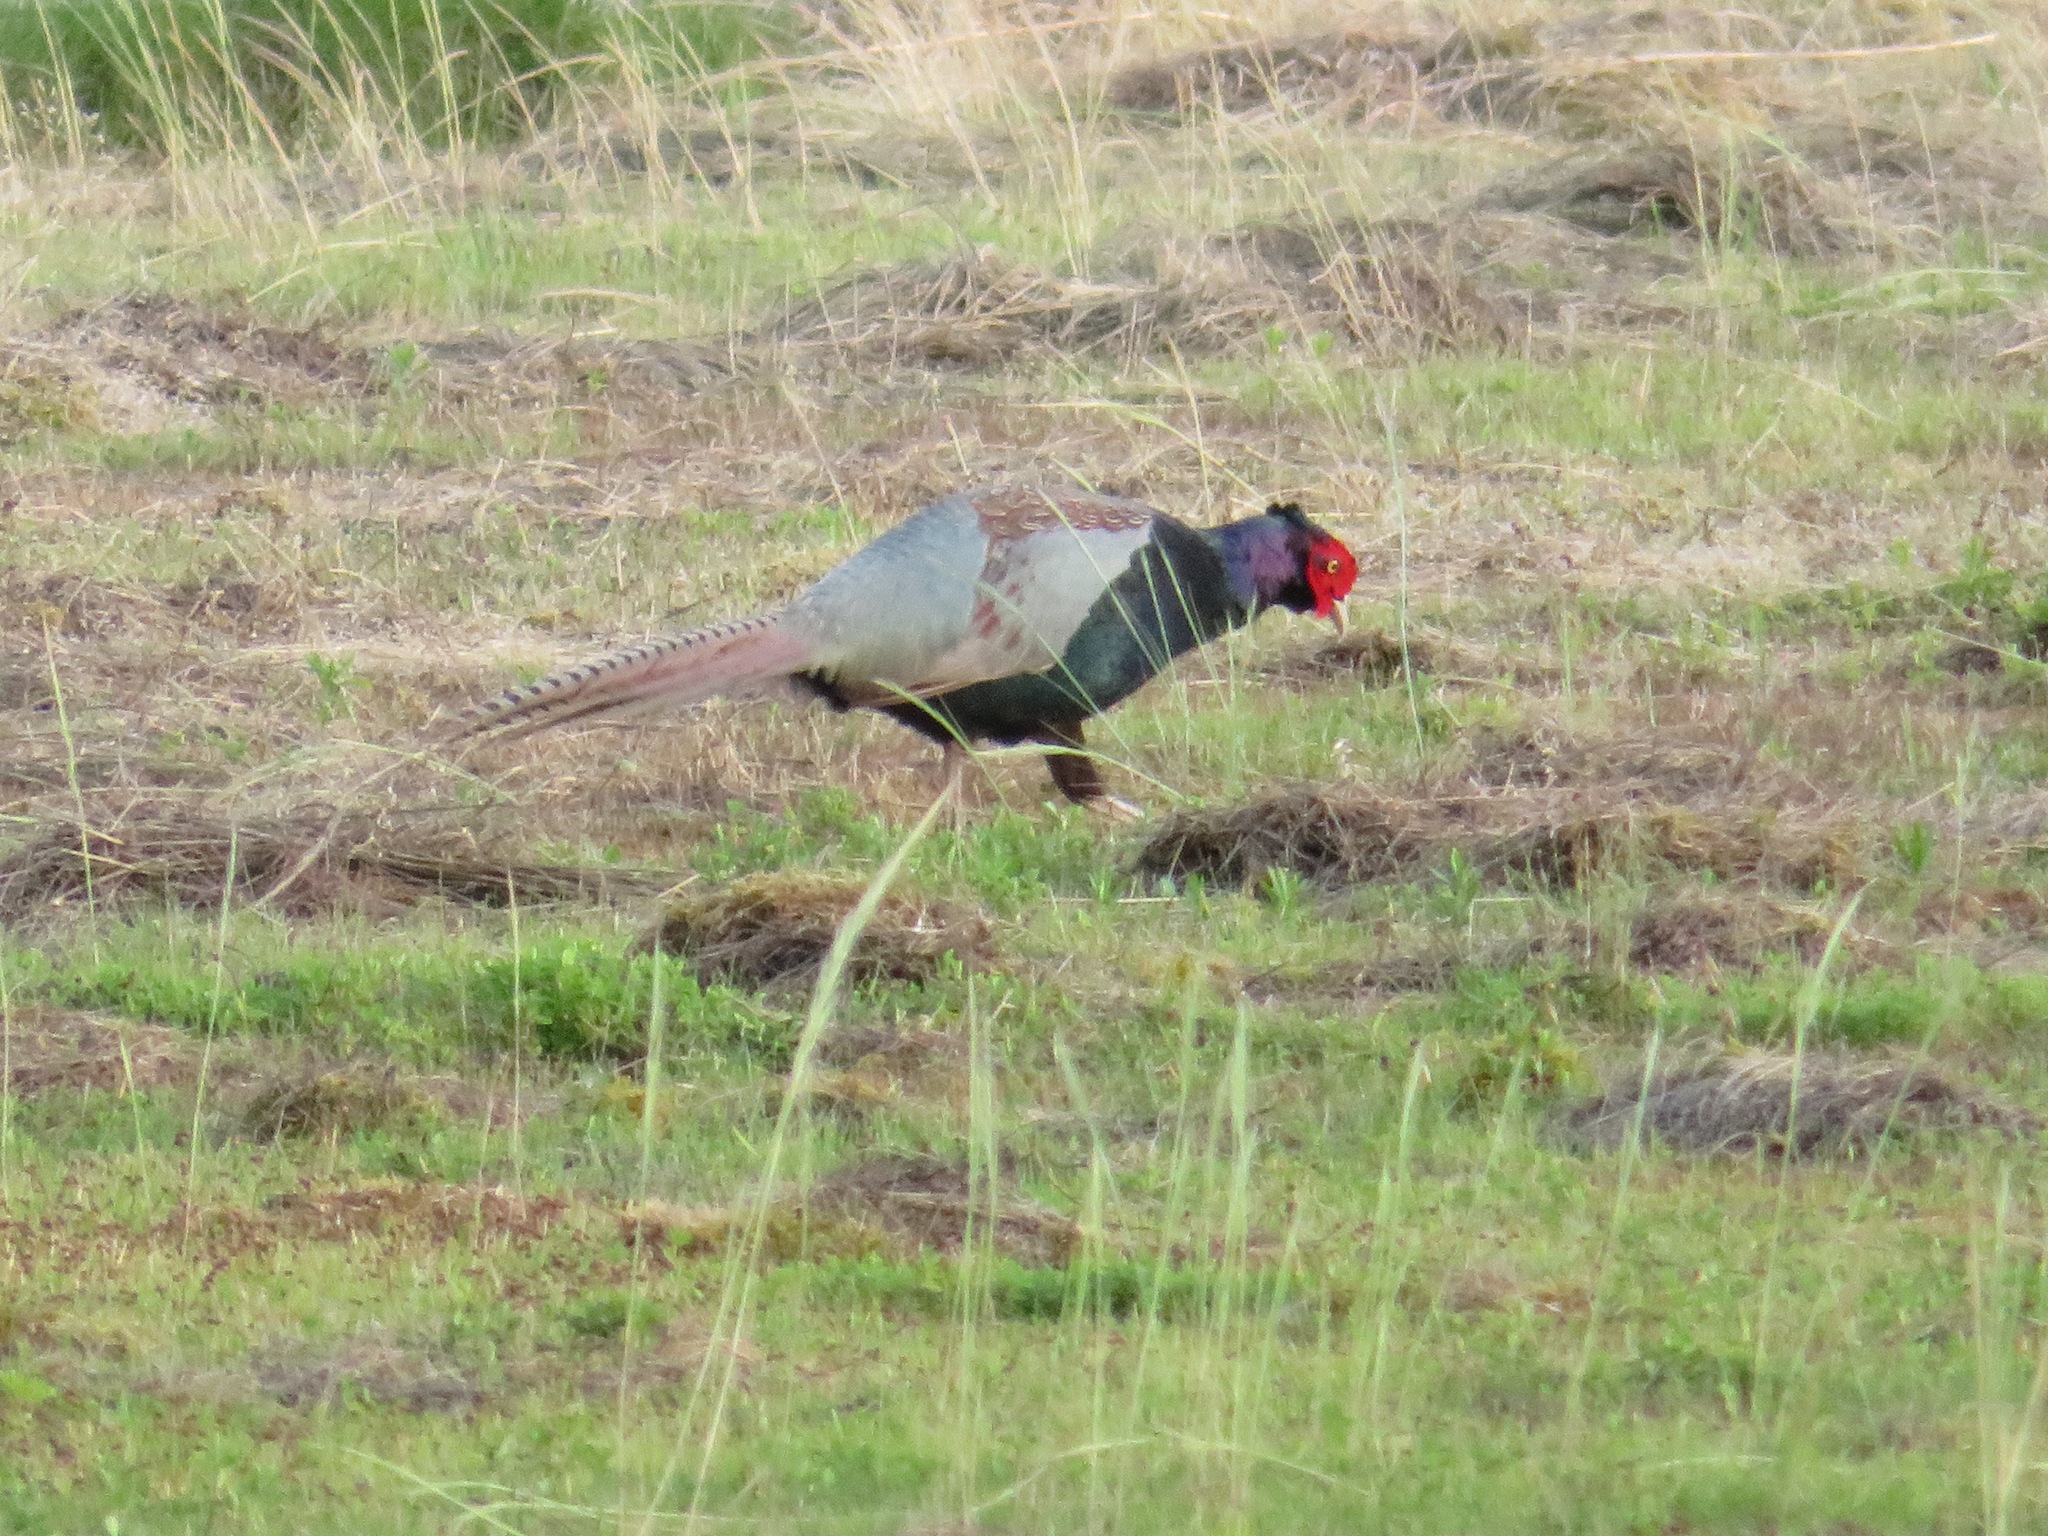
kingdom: Animalia
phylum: Chordata
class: Aves
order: Galliformes
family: Phasianidae
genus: Phasianus
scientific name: Phasianus versicolor
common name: Green pheasant
